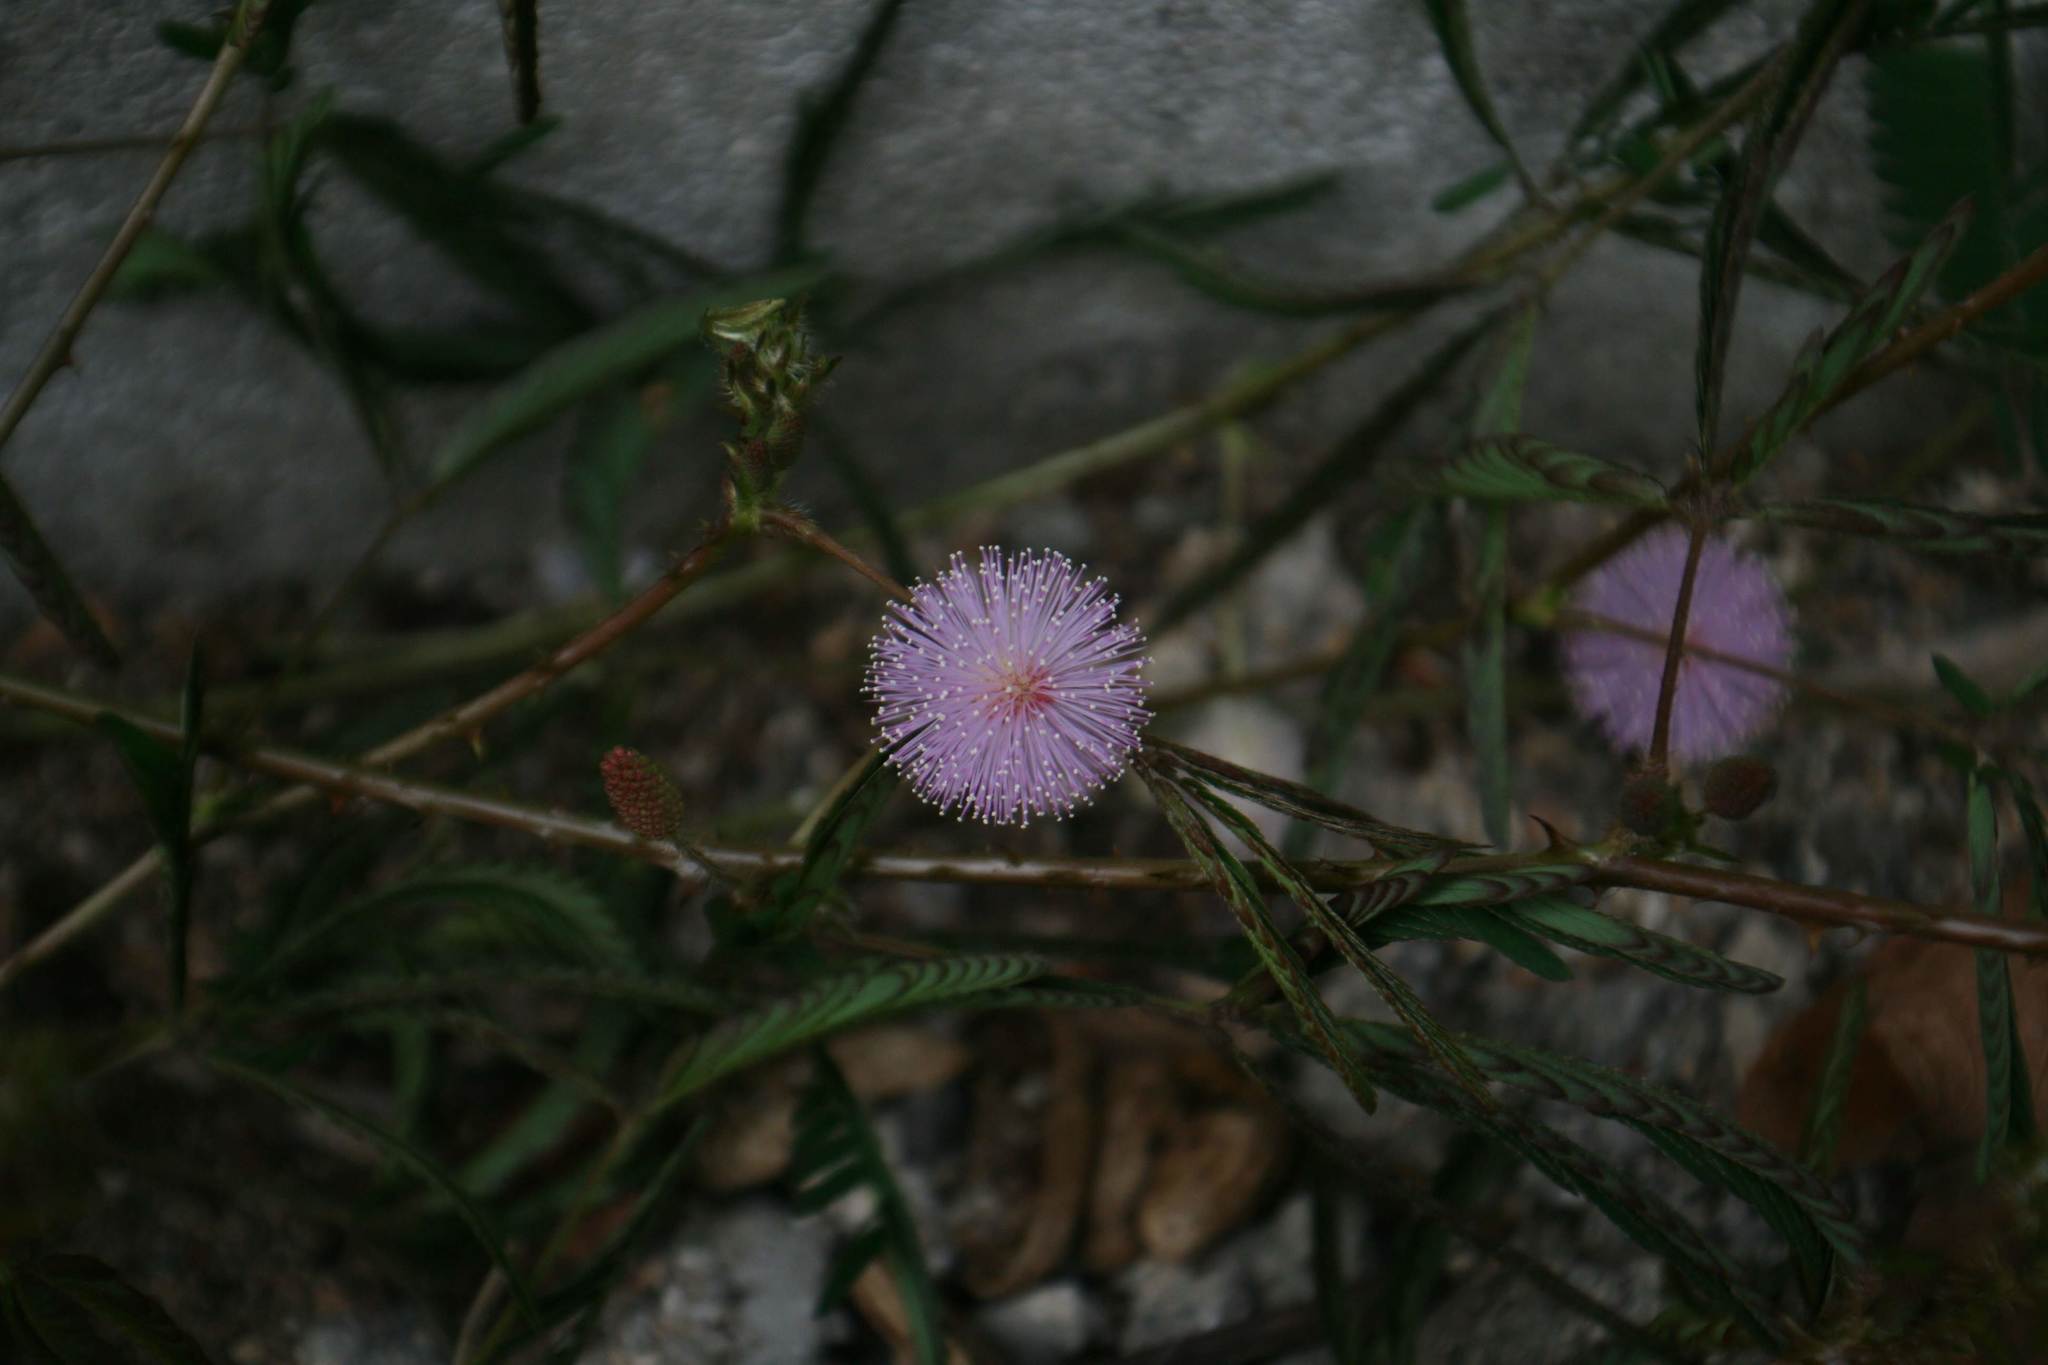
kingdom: Plantae
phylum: Tracheophyta
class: Magnoliopsida
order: Fabales
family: Fabaceae
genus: Mimosa
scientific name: Mimosa pudica
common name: Sensitive plant
